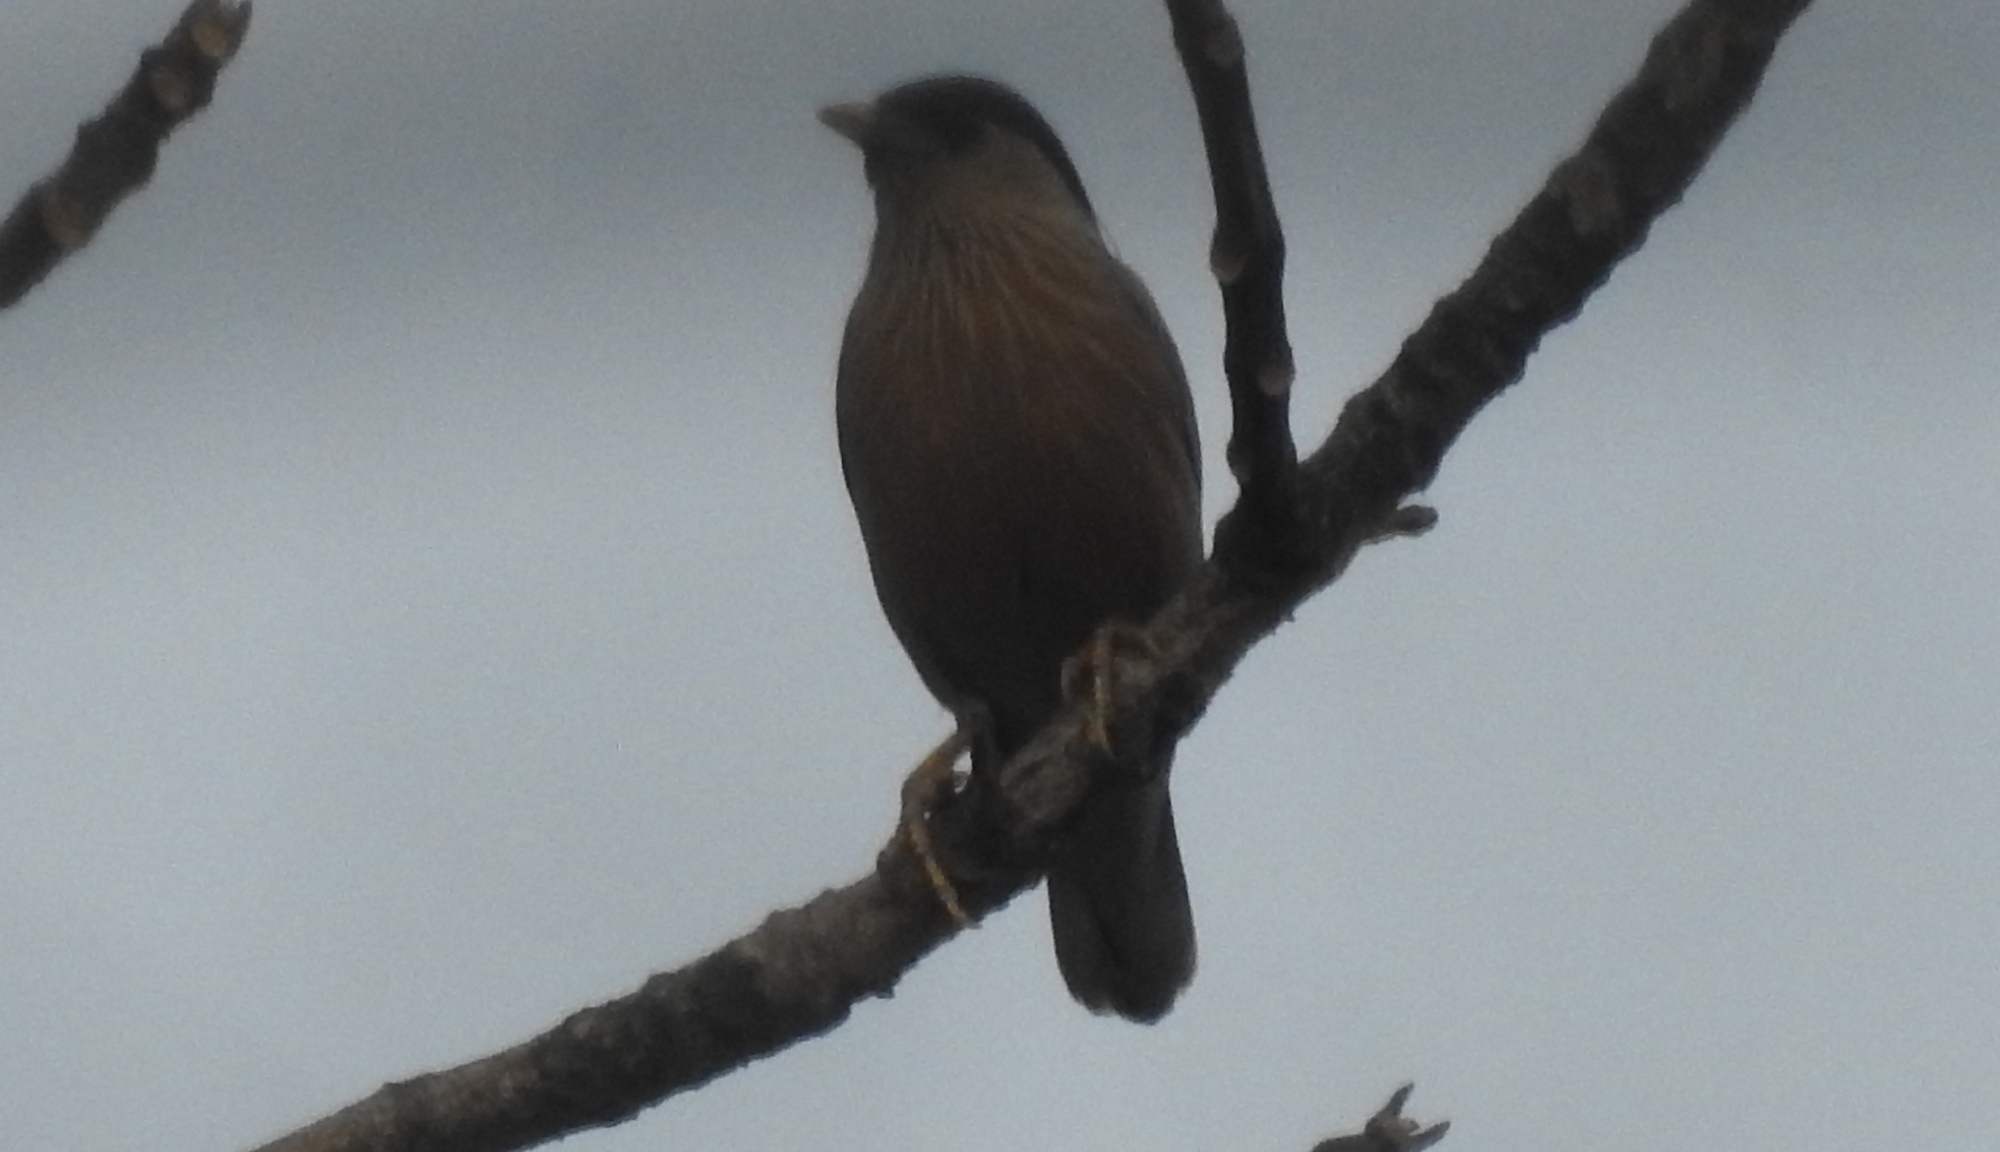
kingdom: Animalia
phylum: Chordata
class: Aves
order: Passeriformes
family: Sturnidae
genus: Sturnia
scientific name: Sturnia pagodarum
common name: Brahminy starling
